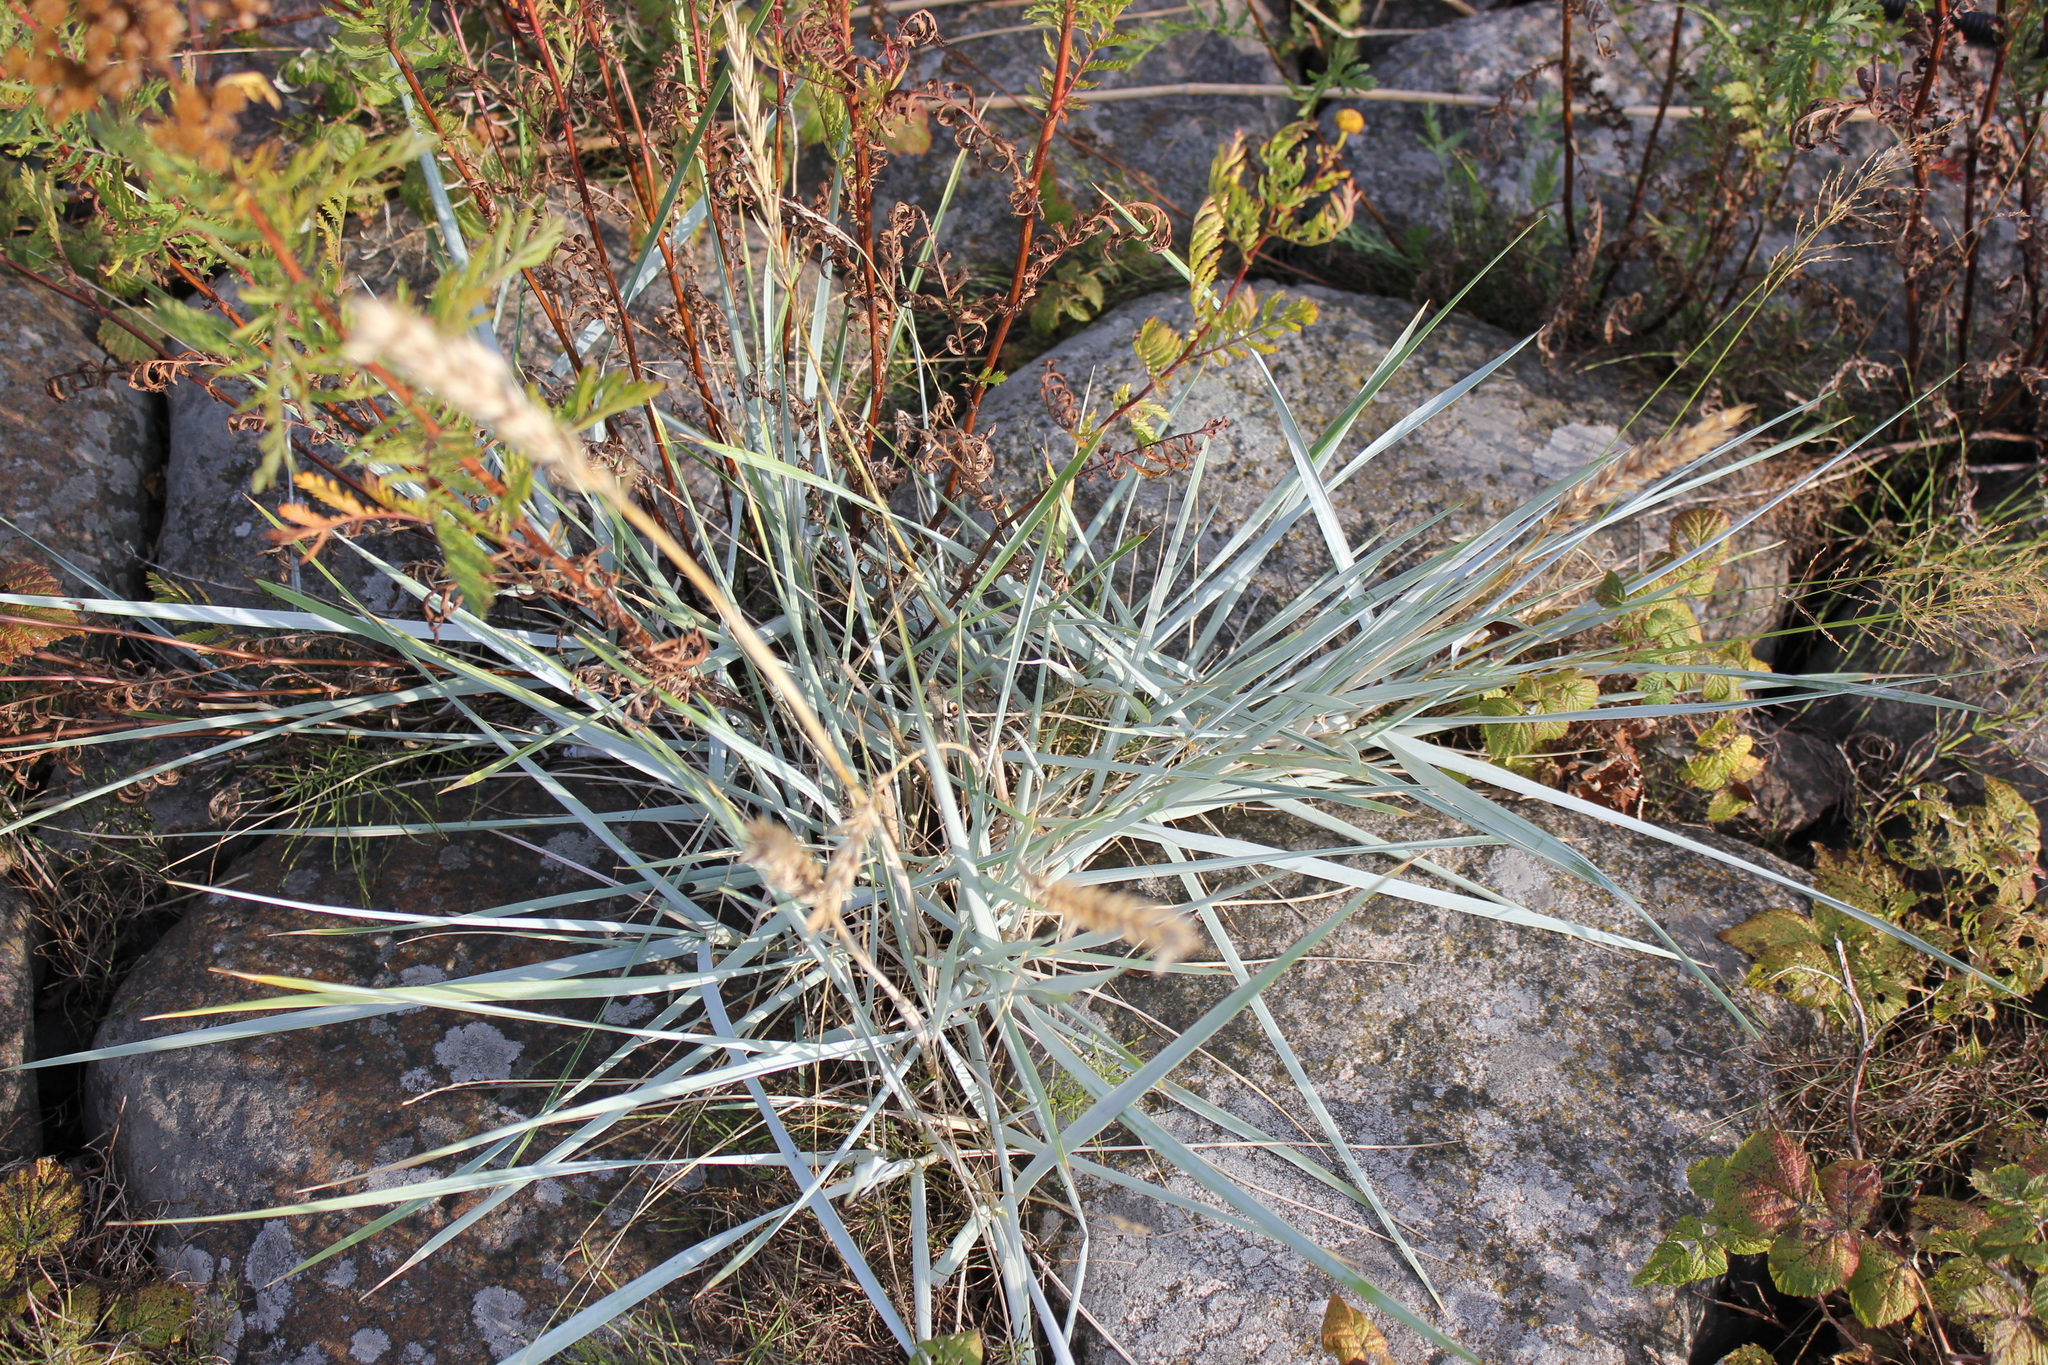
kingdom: Plantae
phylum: Tracheophyta
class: Liliopsida
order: Poales
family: Poaceae
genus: Leymus
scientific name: Leymus arenarius
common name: Lyme-grass
